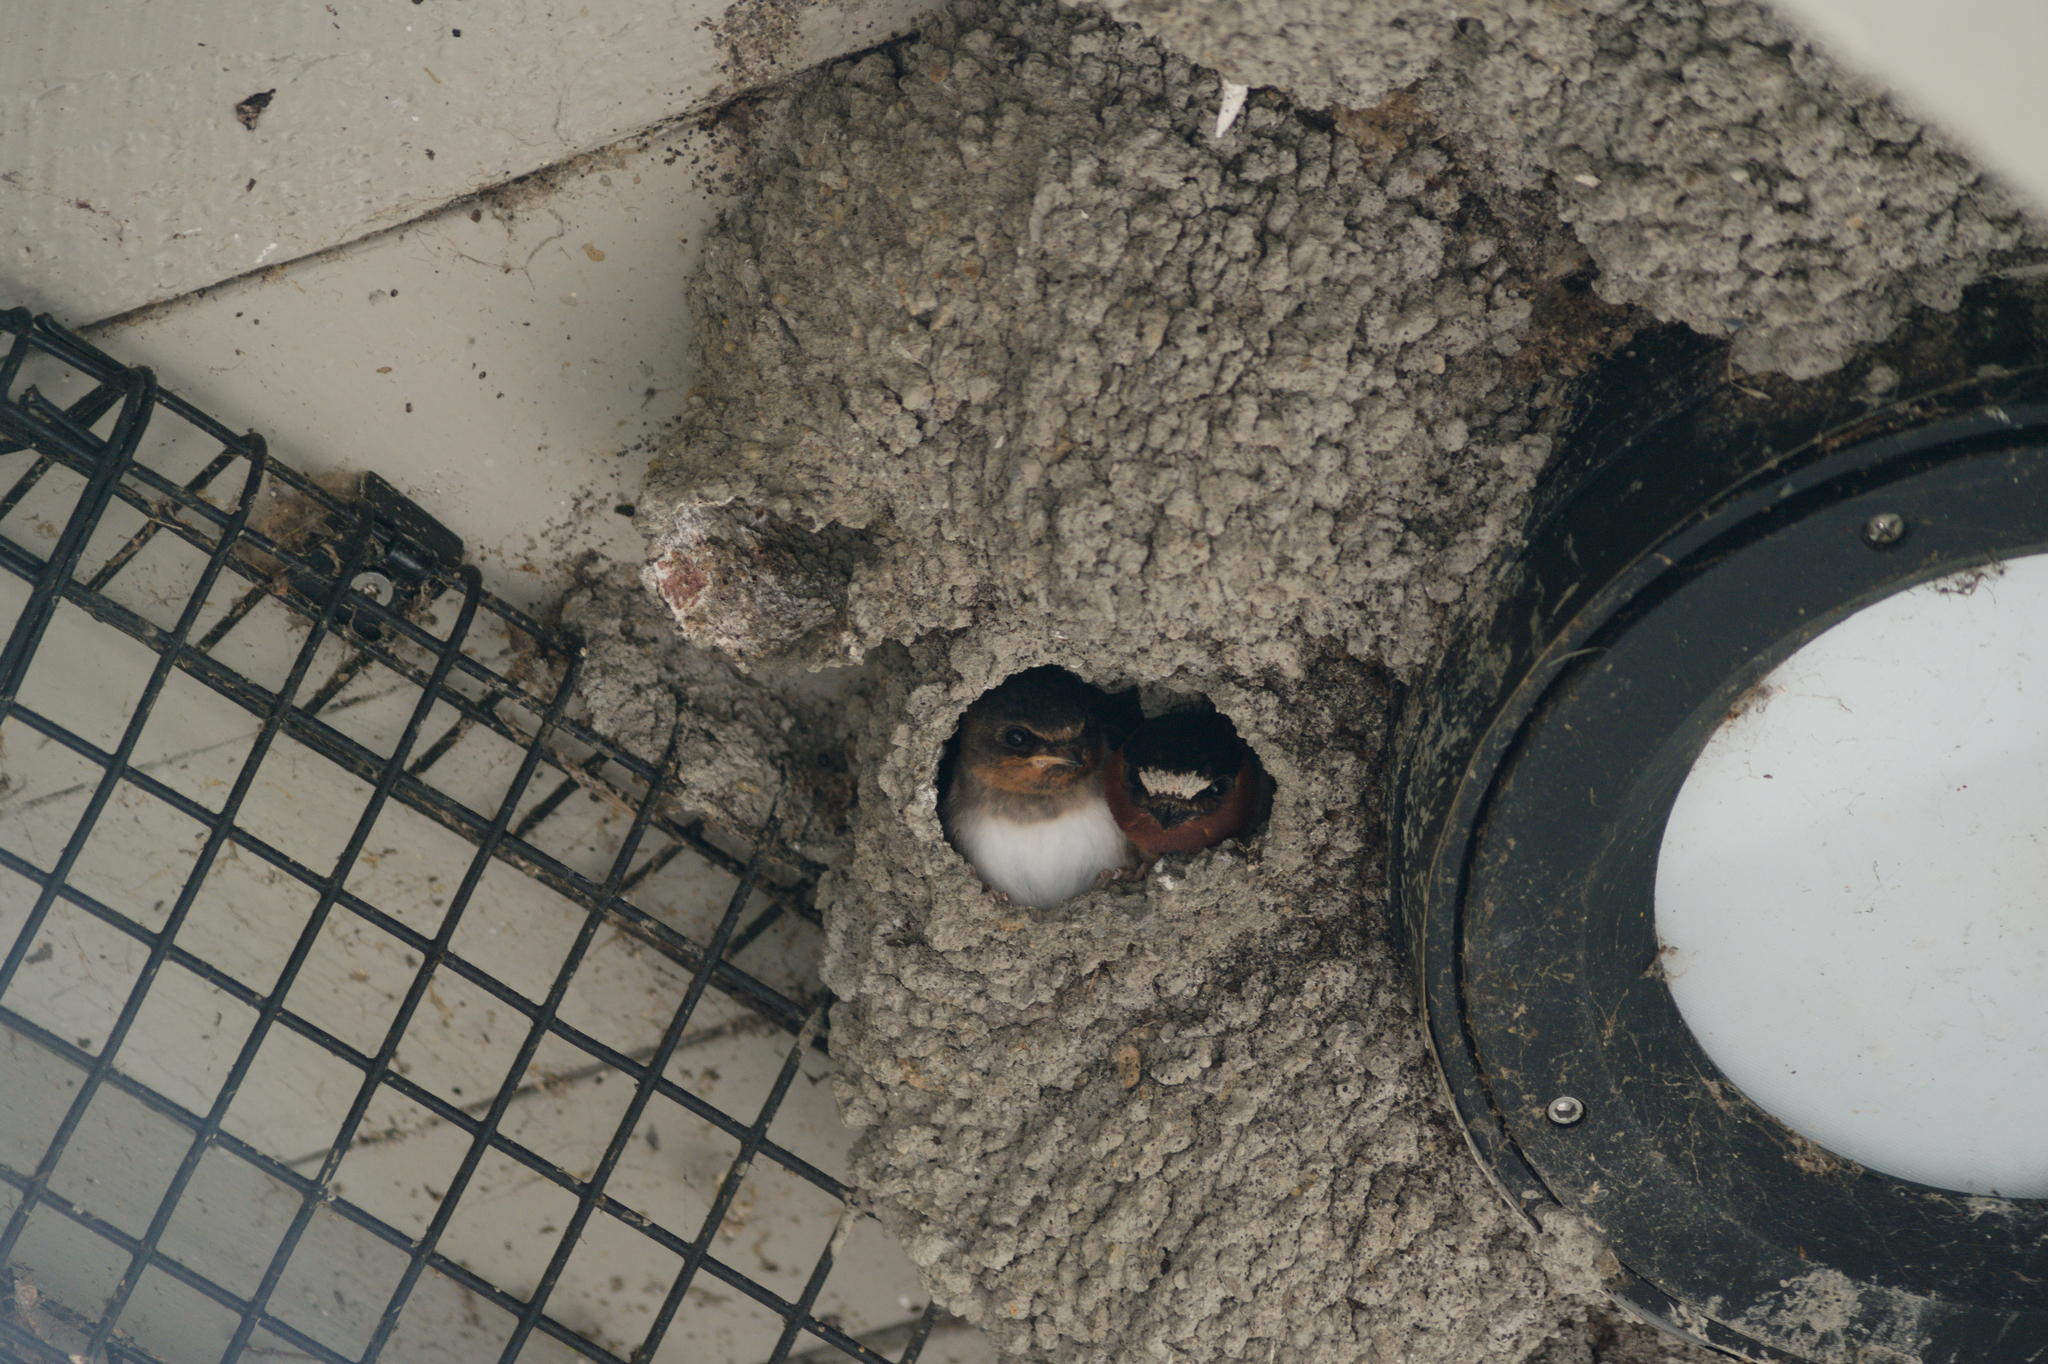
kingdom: Animalia
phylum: Chordata
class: Aves
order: Passeriformes
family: Hirundinidae
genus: Petrochelidon
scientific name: Petrochelidon pyrrhonota
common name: American cliff swallow
